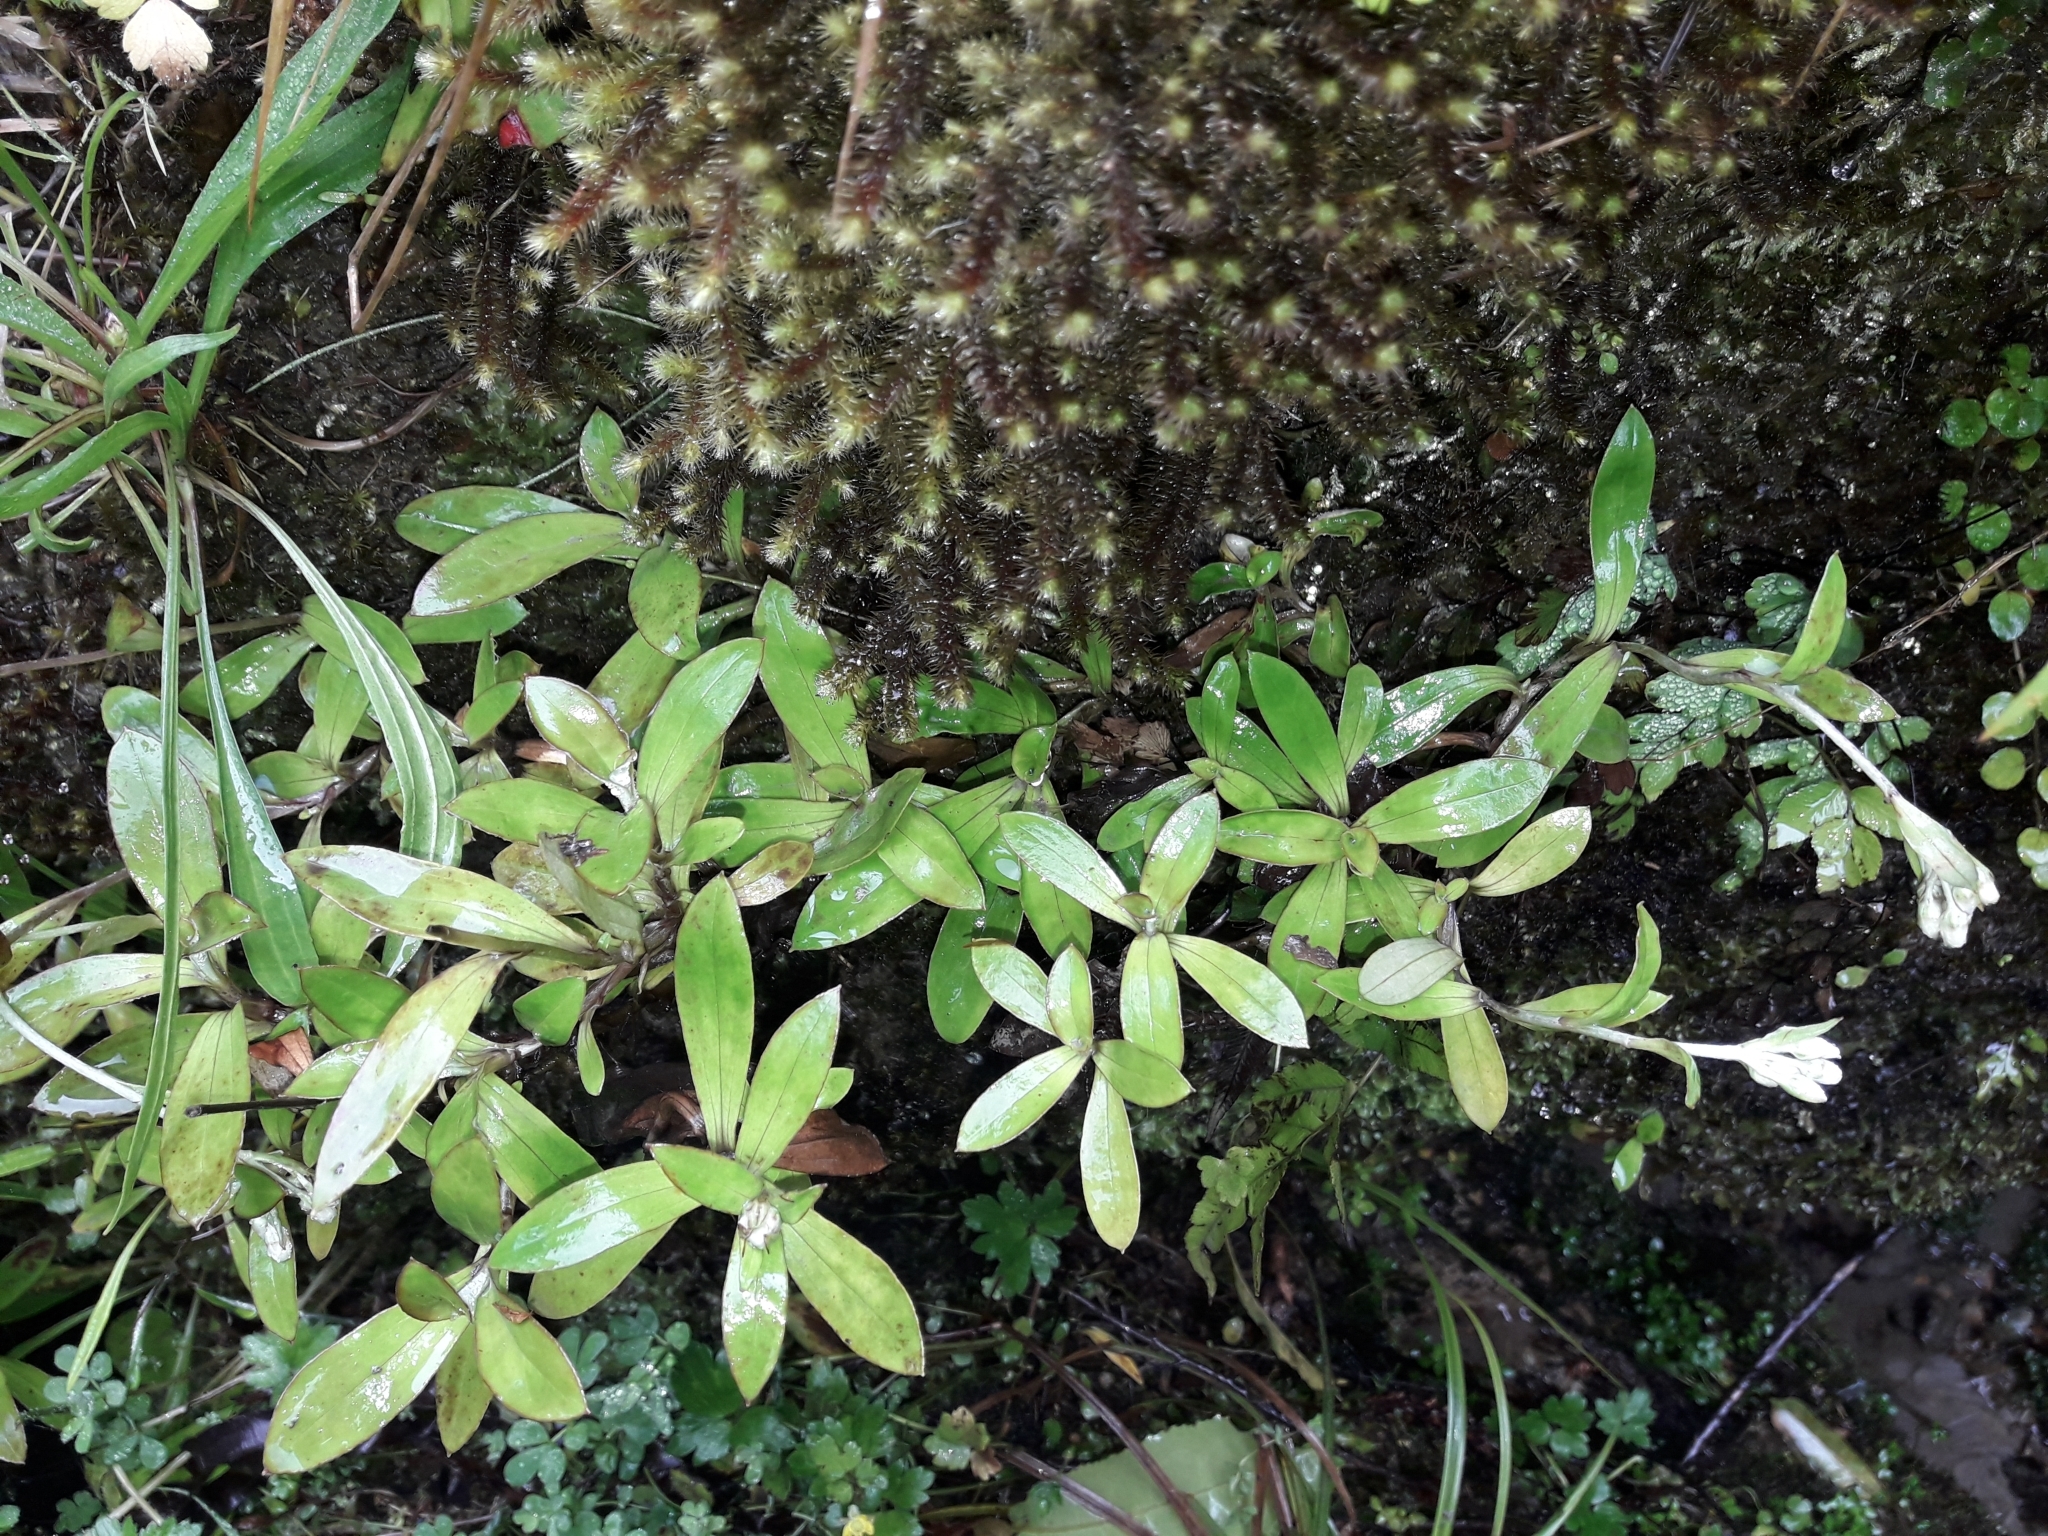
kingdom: Plantae
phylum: Tracheophyta
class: Magnoliopsida
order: Asterales
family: Asteraceae
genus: Anaphalioides
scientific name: Anaphalioides trinervis
